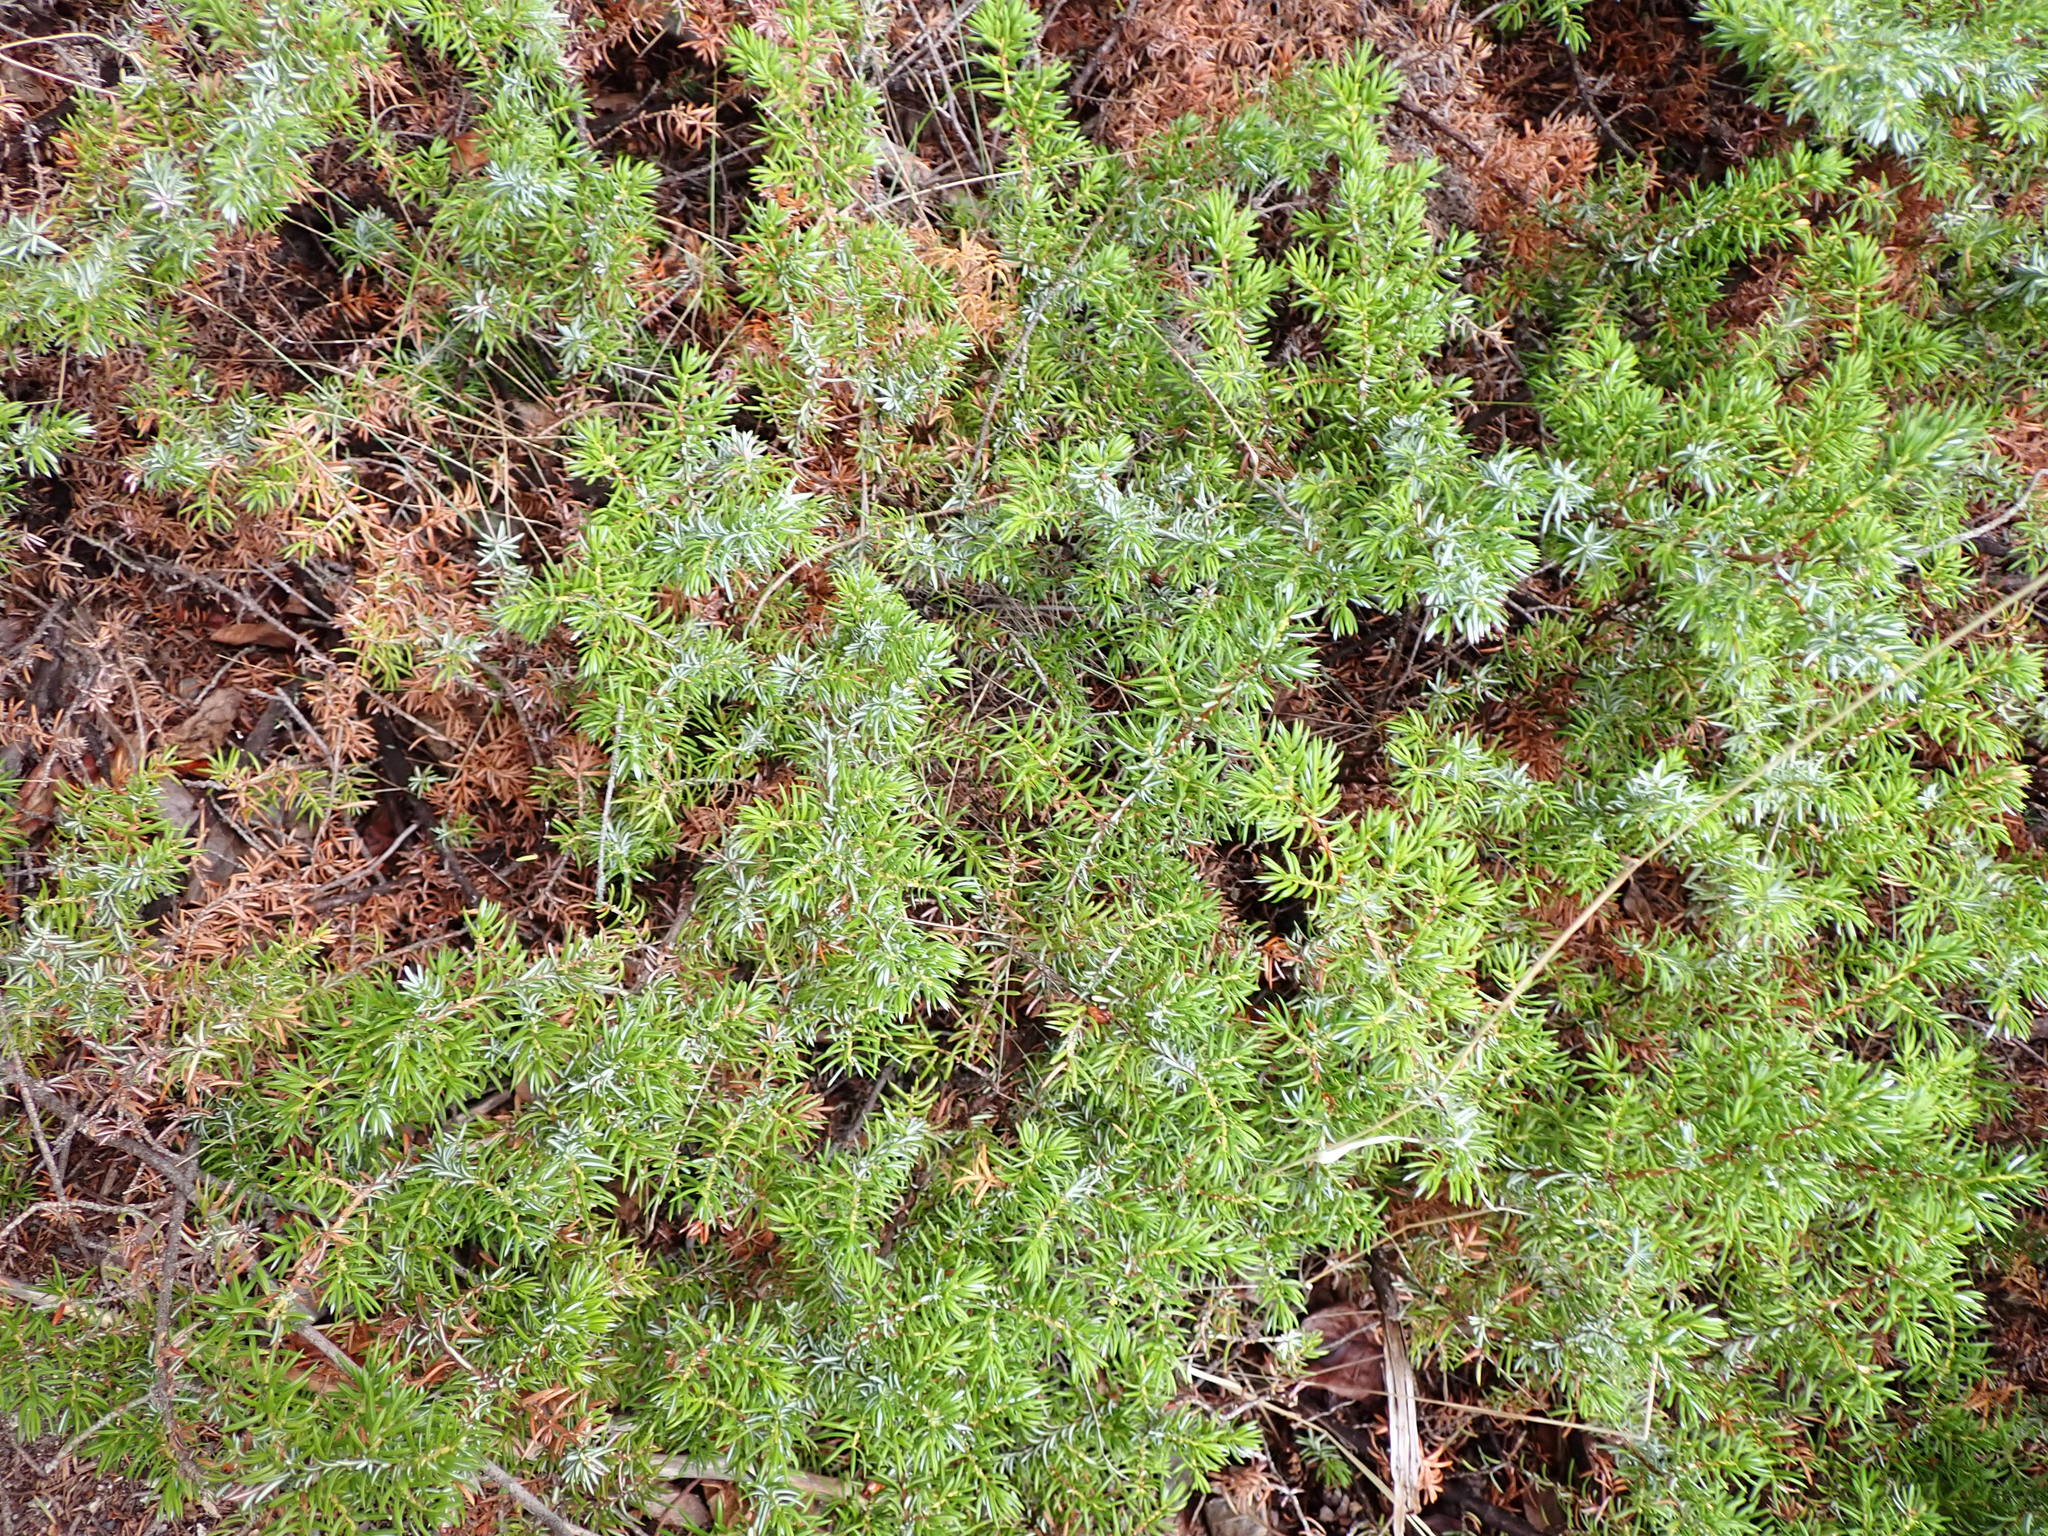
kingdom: Plantae
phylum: Tracheophyta
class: Pinopsida
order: Pinales
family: Cupressaceae
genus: Juniperus
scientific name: Juniperus communis
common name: Common juniper
